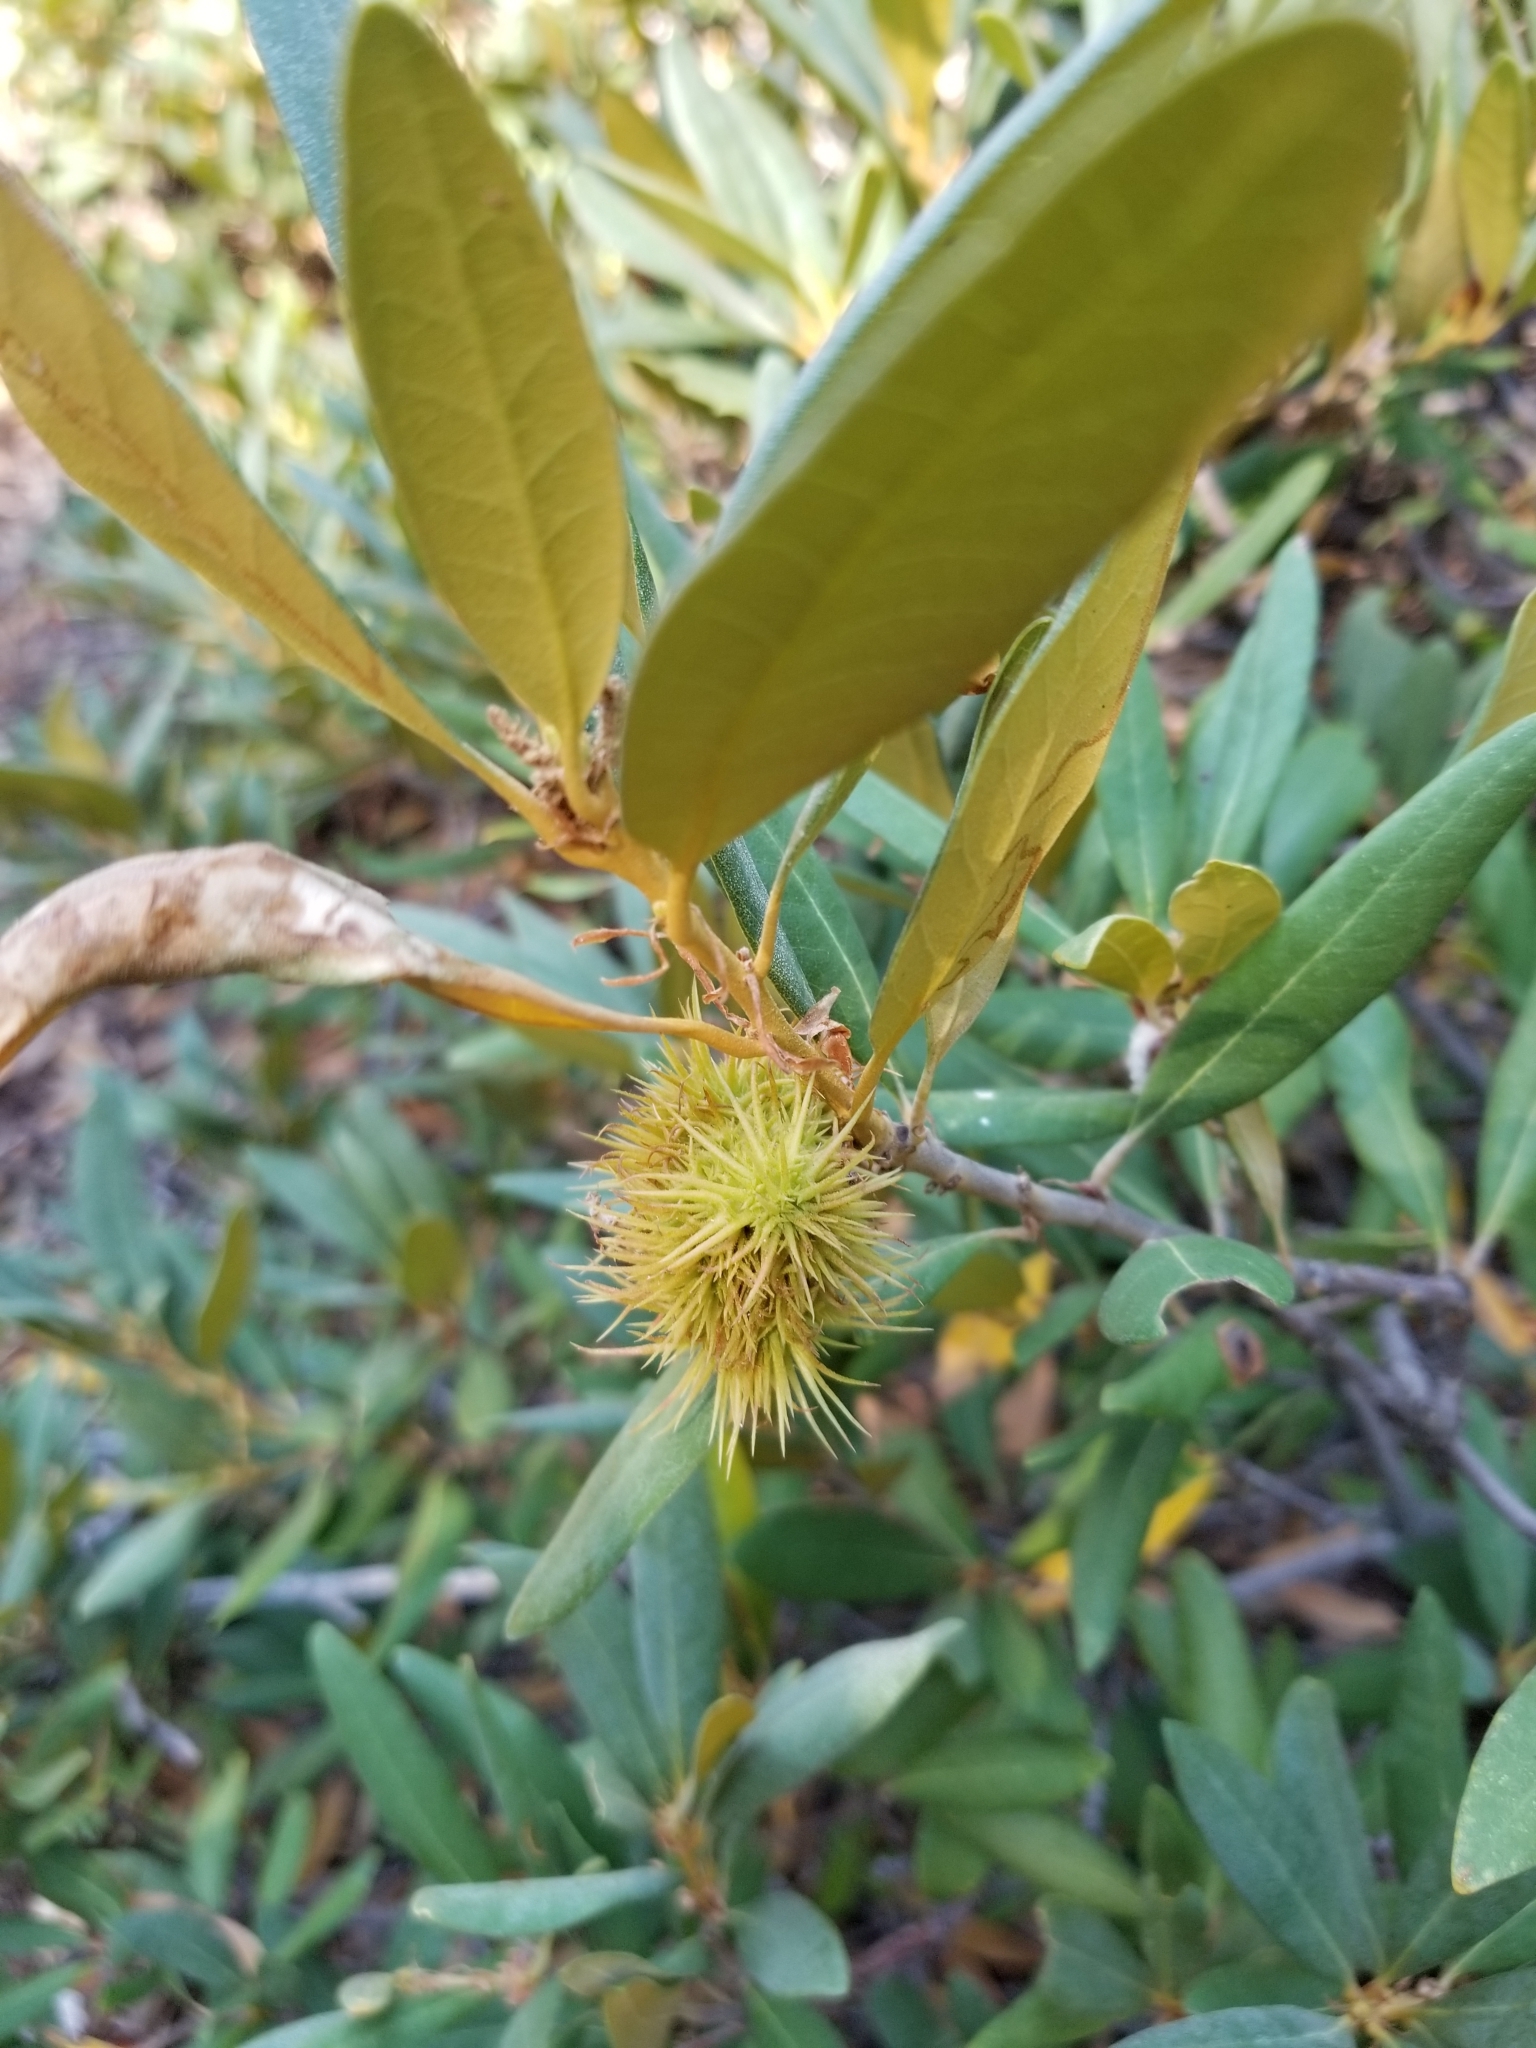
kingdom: Plantae
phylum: Tracheophyta
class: Magnoliopsida
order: Fagales
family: Fagaceae
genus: Chrysolepis
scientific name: Chrysolepis sempervirens
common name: Bush chinquapin
